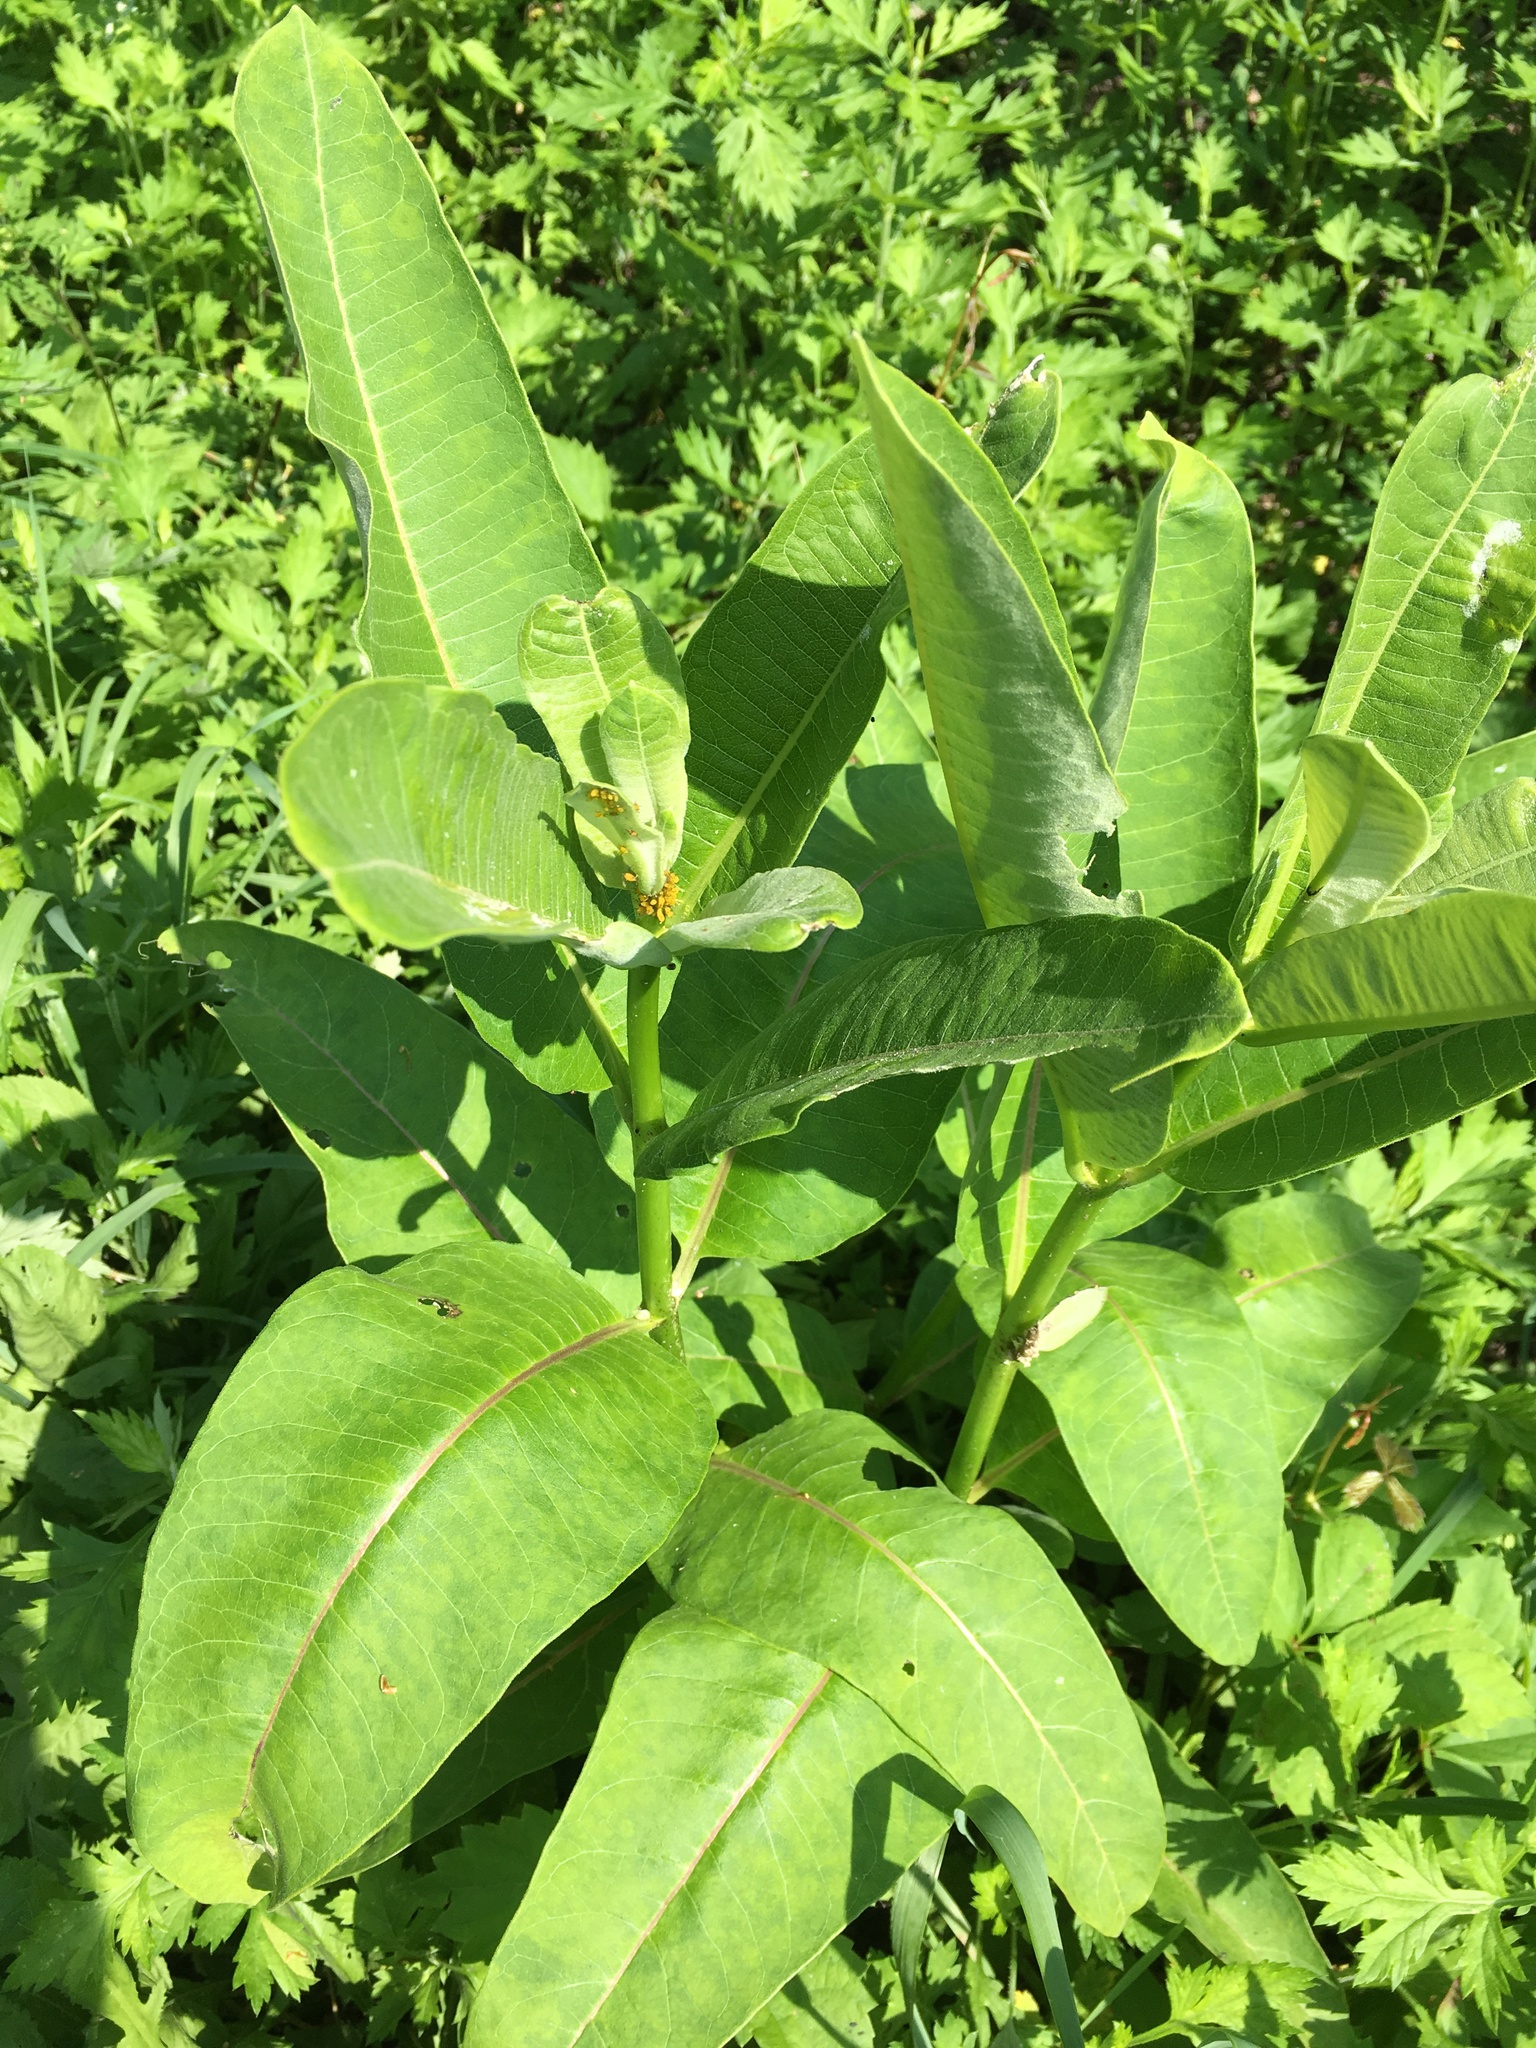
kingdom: Plantae
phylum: Tracheophyta
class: Magnoliopsida
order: Gentianales
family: Apocynaceae
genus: Asclepias
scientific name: Asclepias syriaca
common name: Common milkweed
